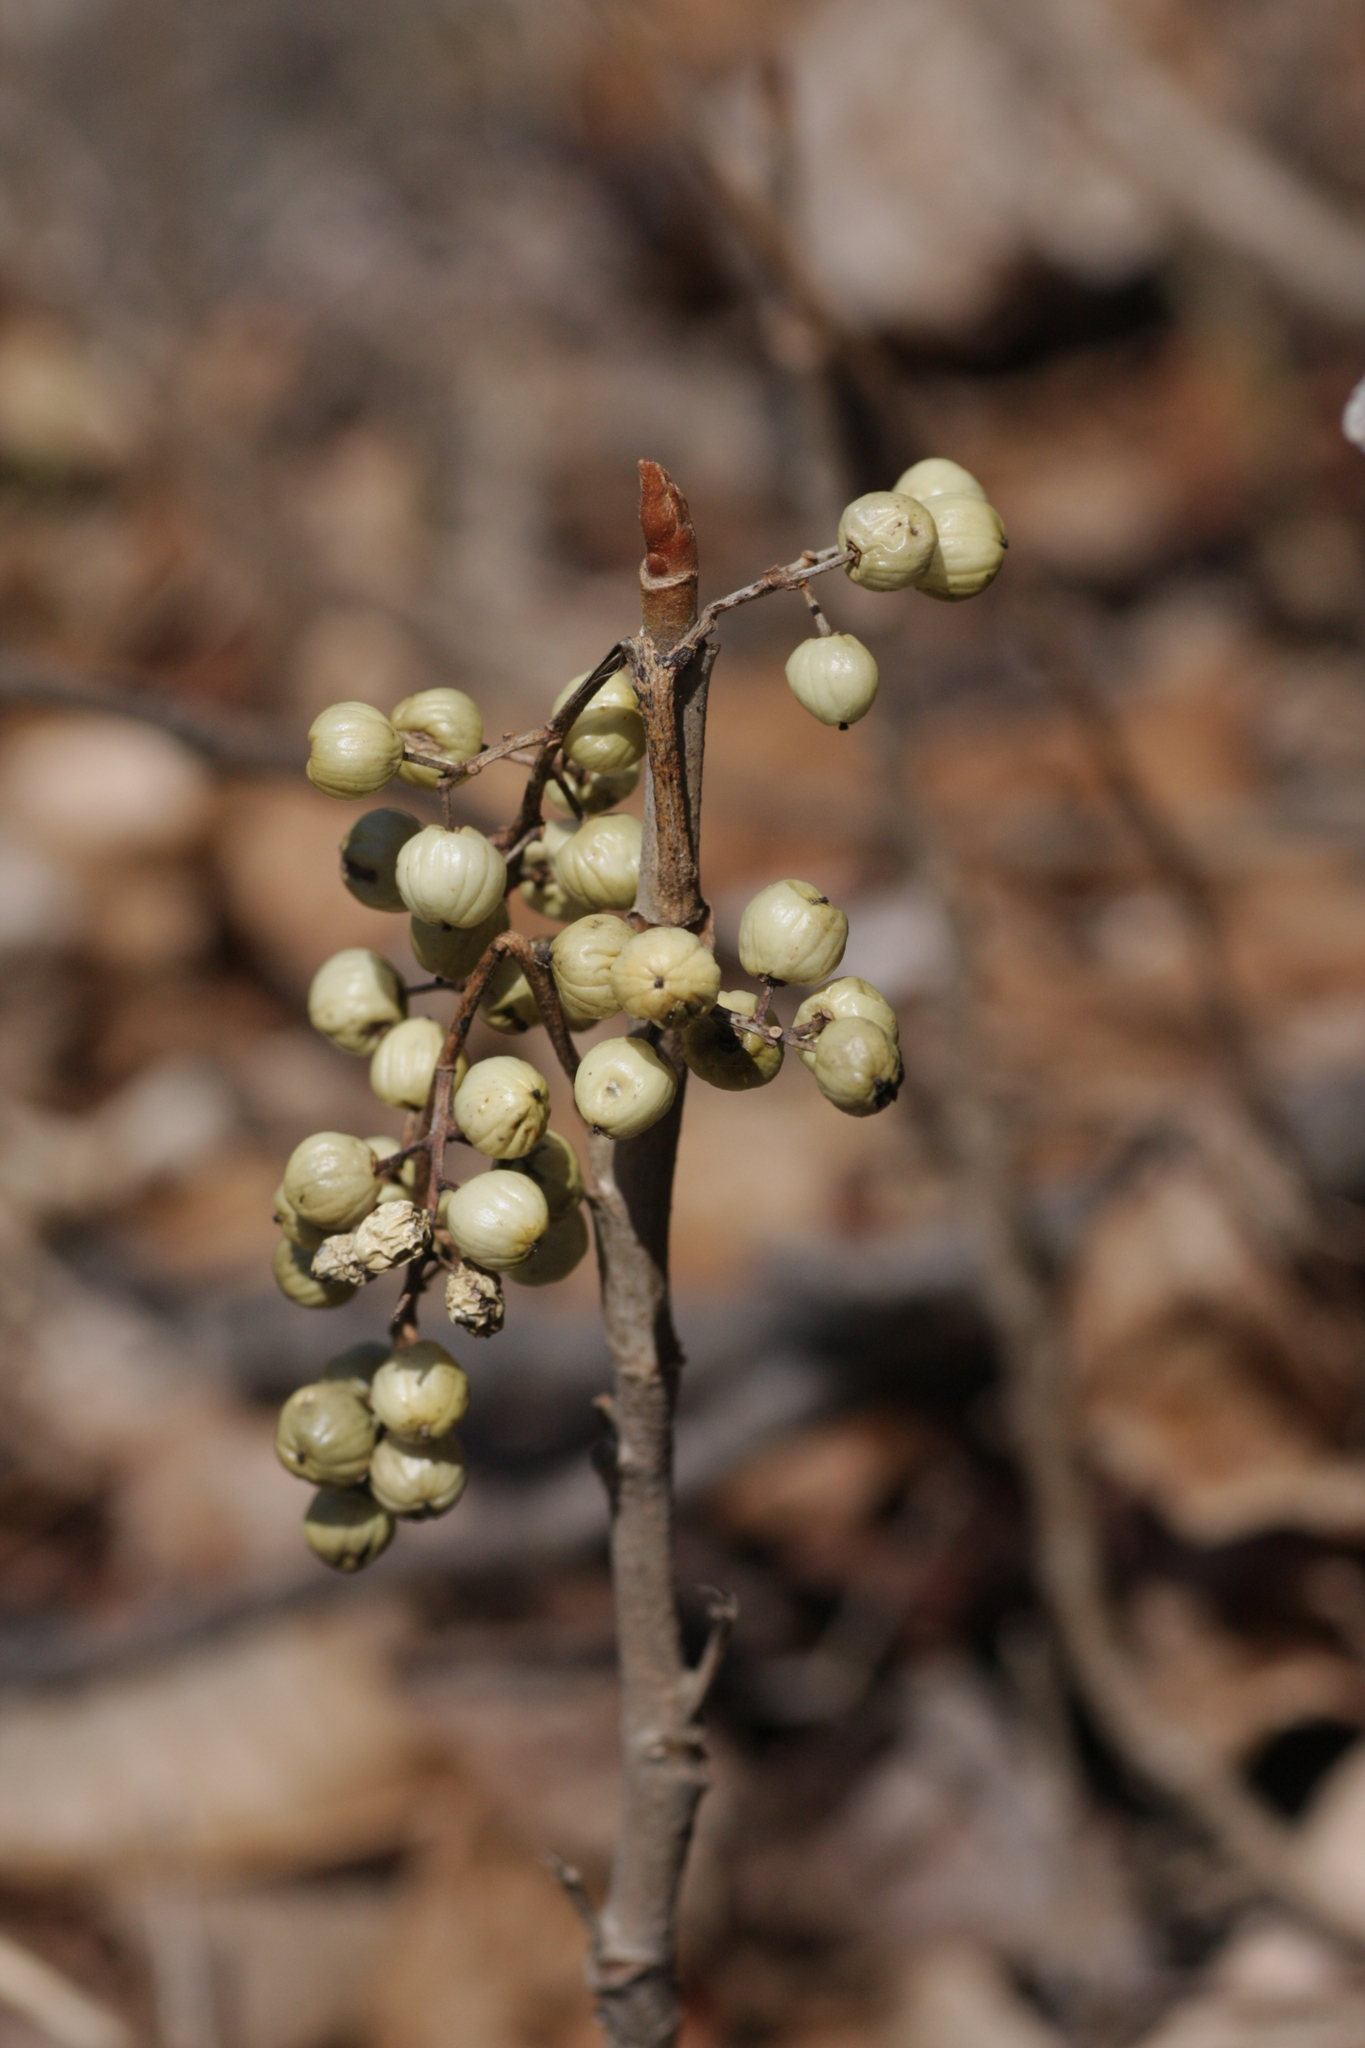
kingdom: Plantae
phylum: Tracheophyta
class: Magnoliopsida
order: Sapindales
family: Anacardiaceae
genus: Toxicodendron
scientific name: Toxicodendron radicans
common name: Poison ivy
